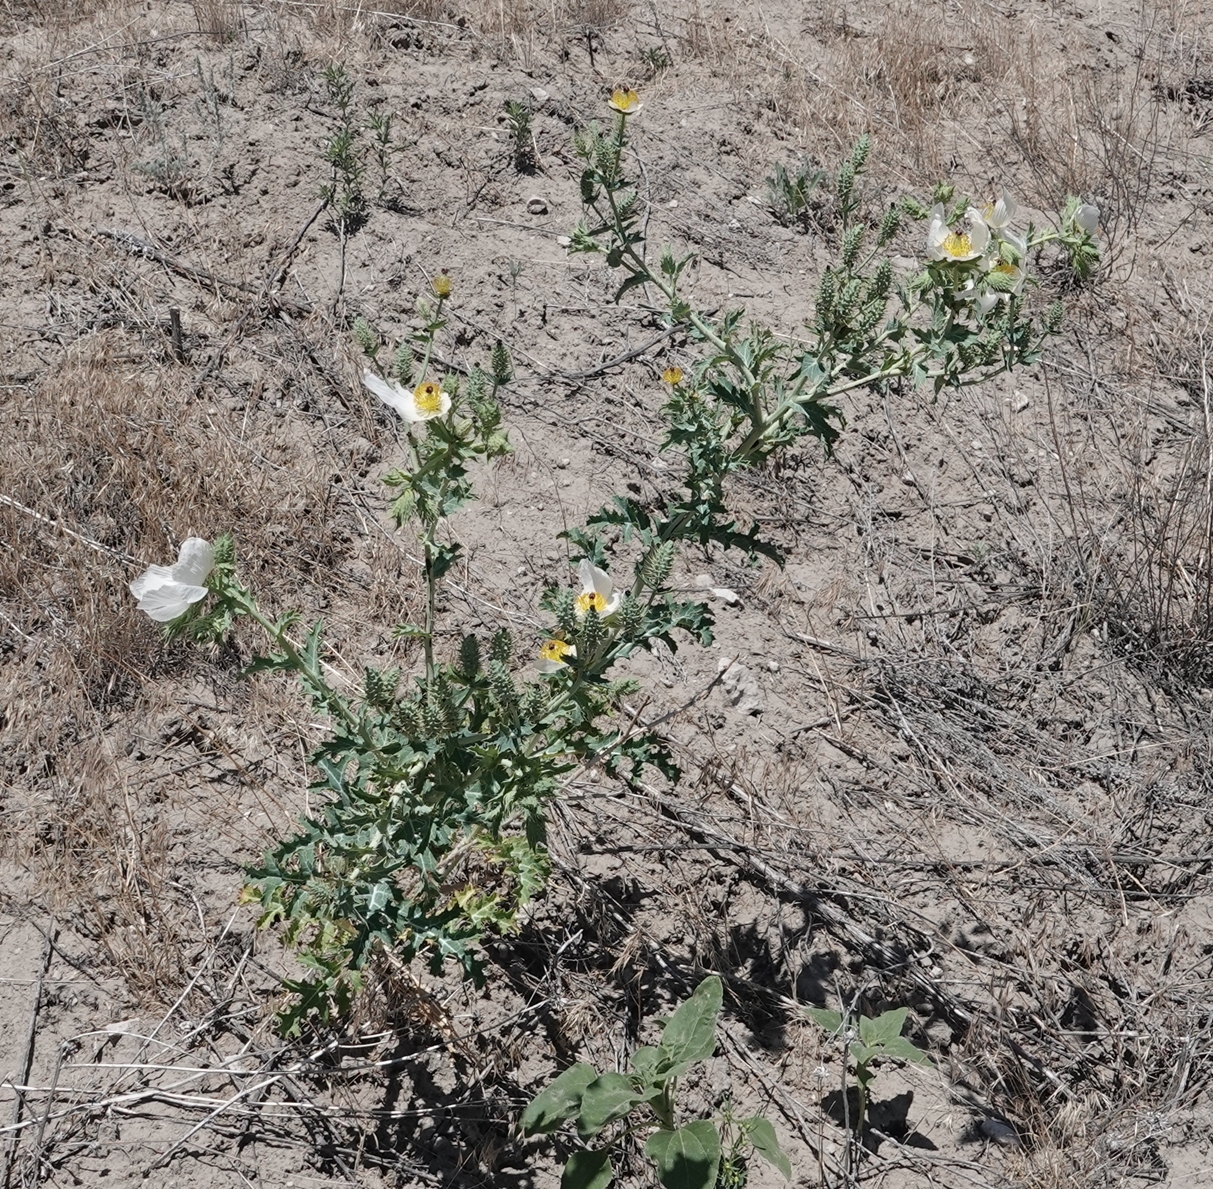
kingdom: Plantae
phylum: Tracheophyta
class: Magnoliopsida
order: Ranunculales
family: Papaveraceae
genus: Argemone
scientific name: Argemone polyanthemos
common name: Plains prickly-poppy
